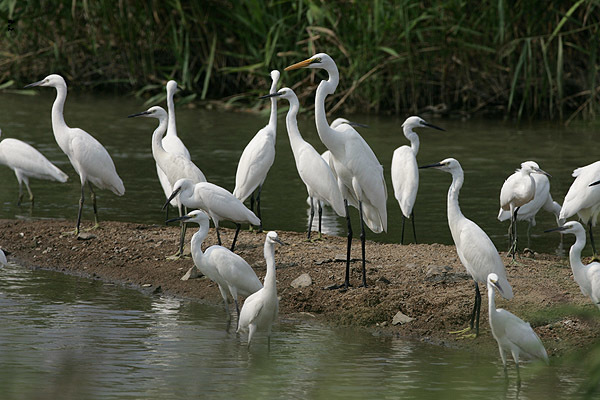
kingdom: Animalia
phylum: Chordata
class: Aves
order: Pelecaniformes
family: Ardeidae
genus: Ardea
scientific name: Ardea alba
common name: Great egret
